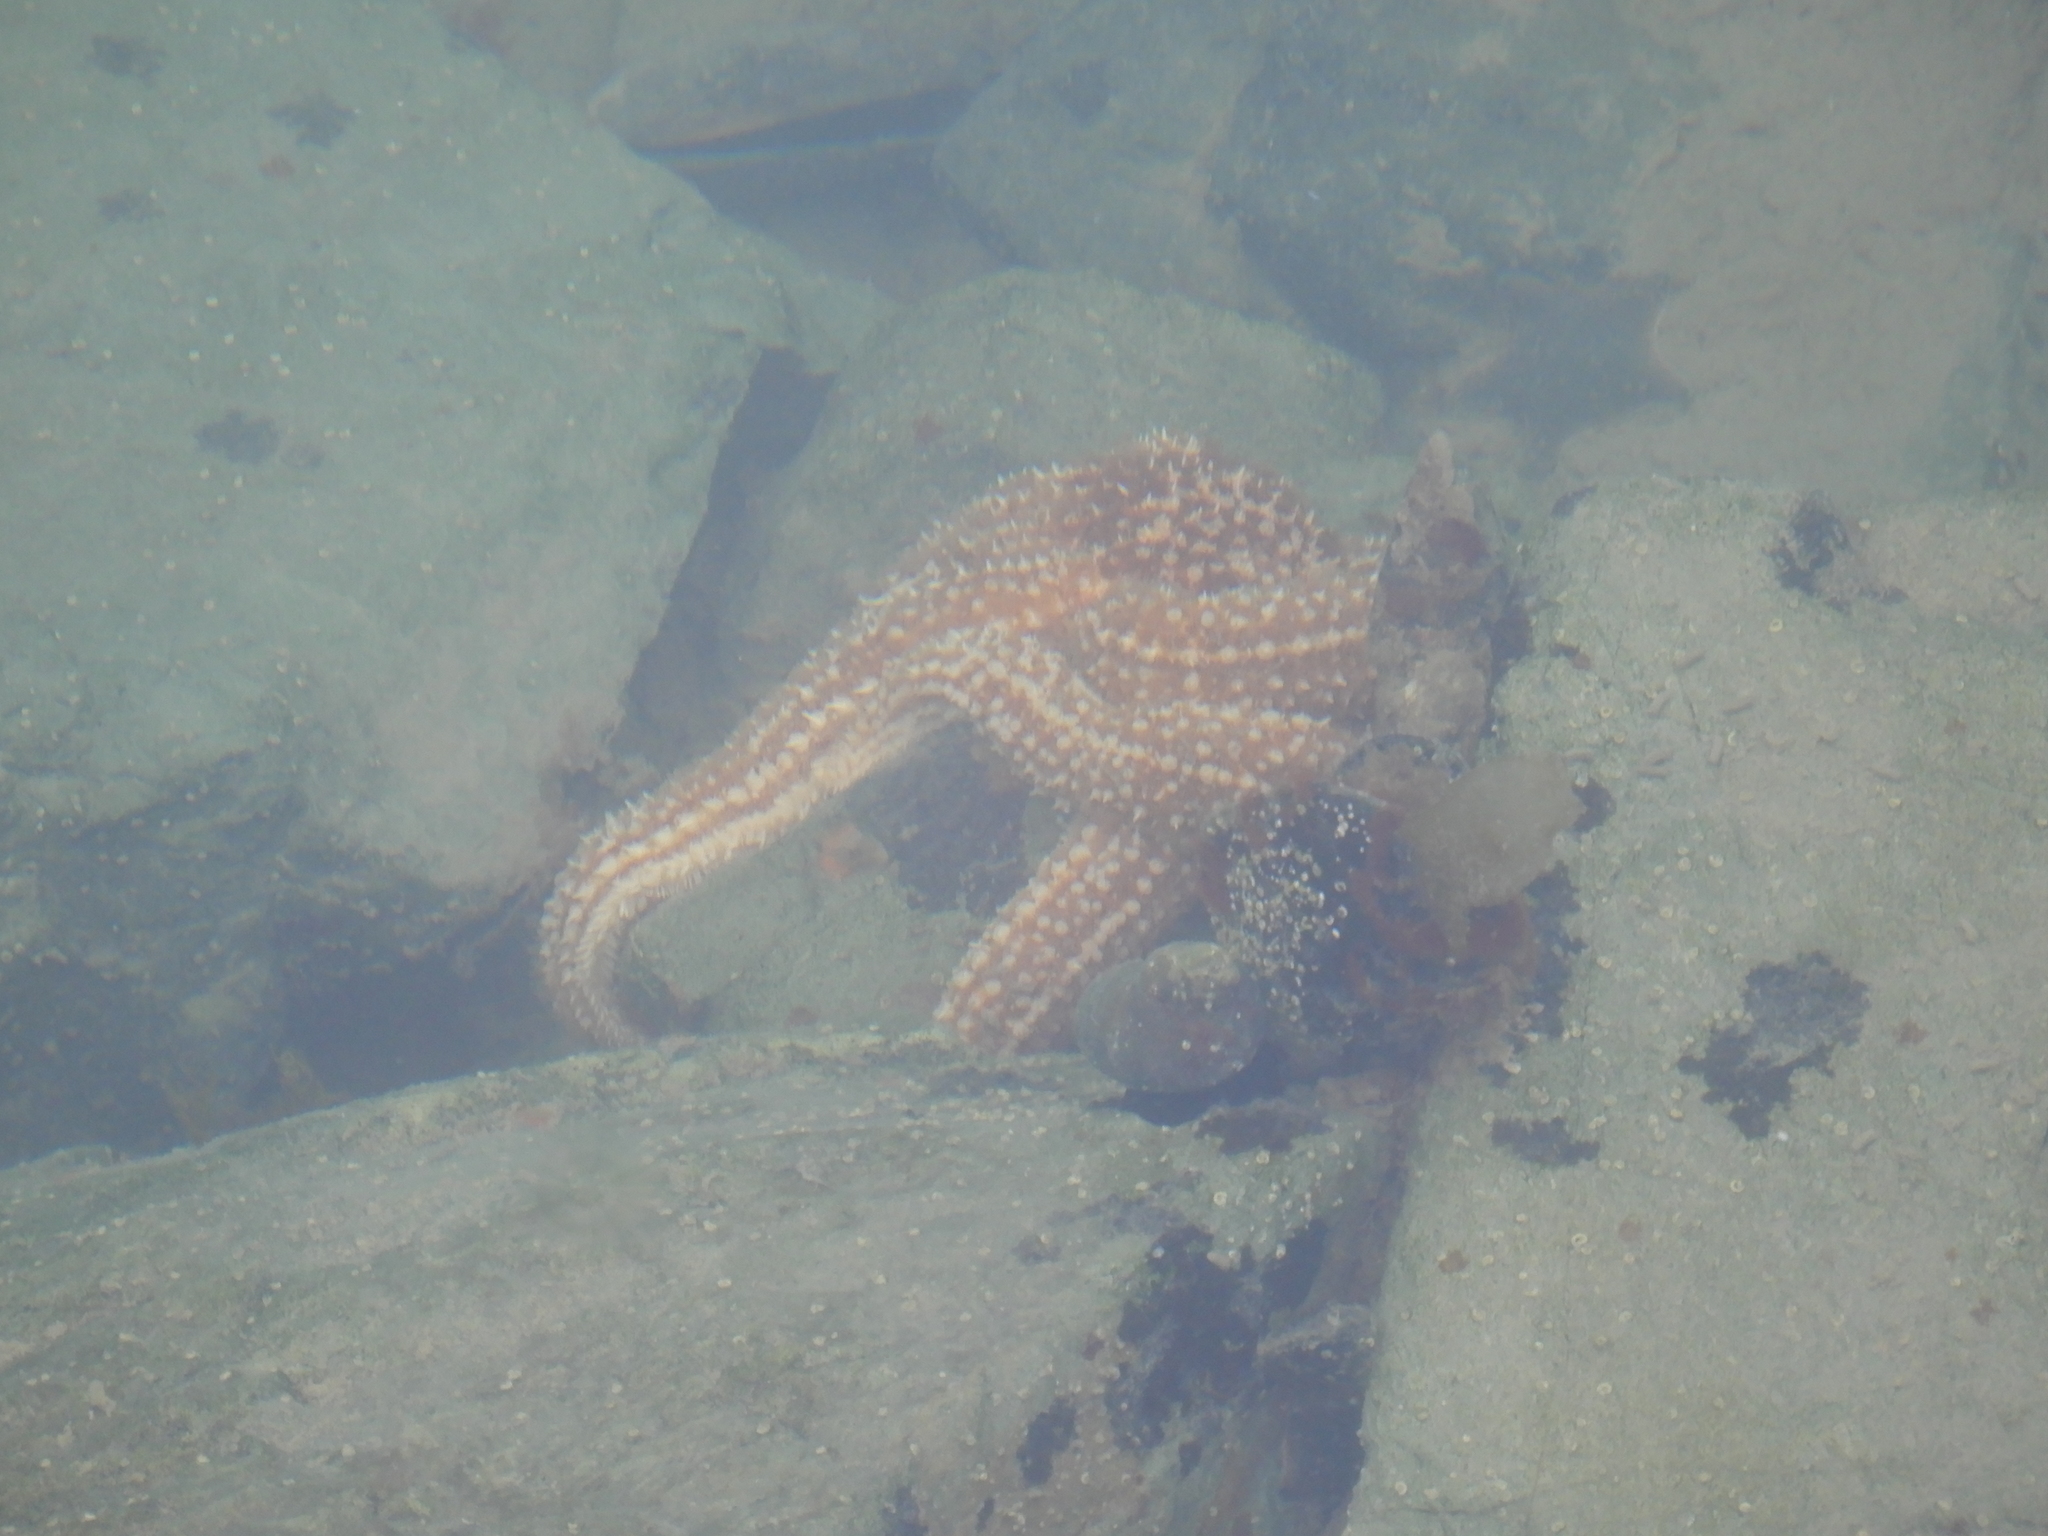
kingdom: Animalia
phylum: Echinodermata
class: Asteroidea
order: Forcipulatida
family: Asteriidae
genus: Coscinasterias
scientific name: Coscinasterias muricata
